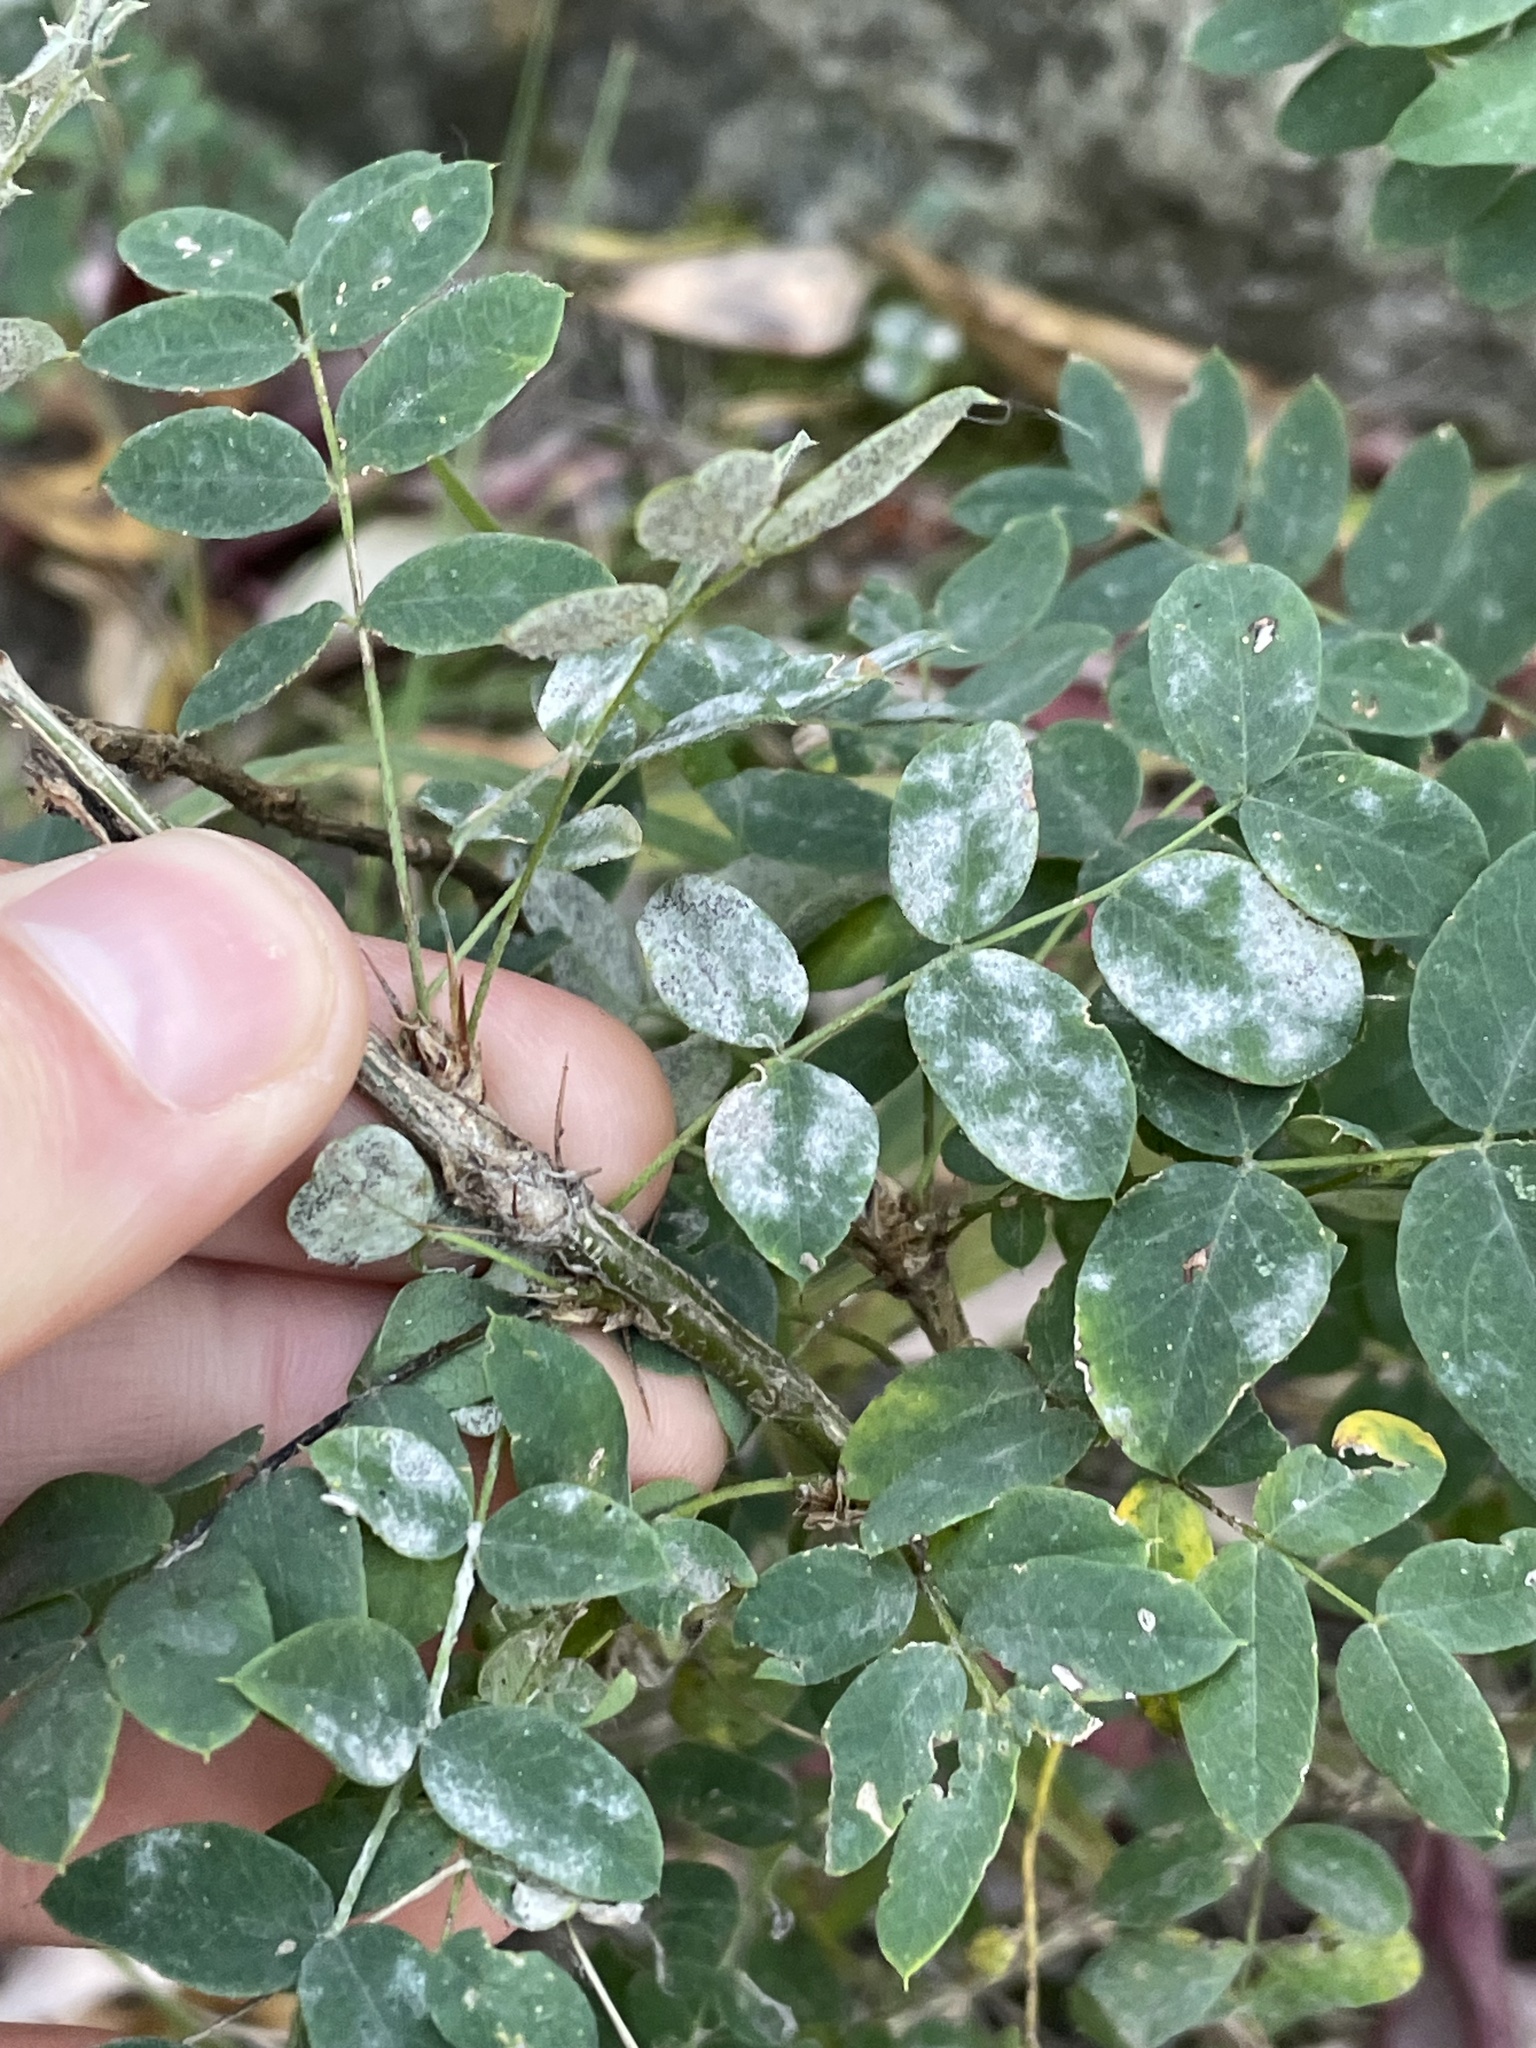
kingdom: Plantae
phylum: Tracheophyta
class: Magnoliopsida
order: Fabales
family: Fabaceae
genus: Caragana
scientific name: Caragana arborescens
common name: Siberian peashrub
